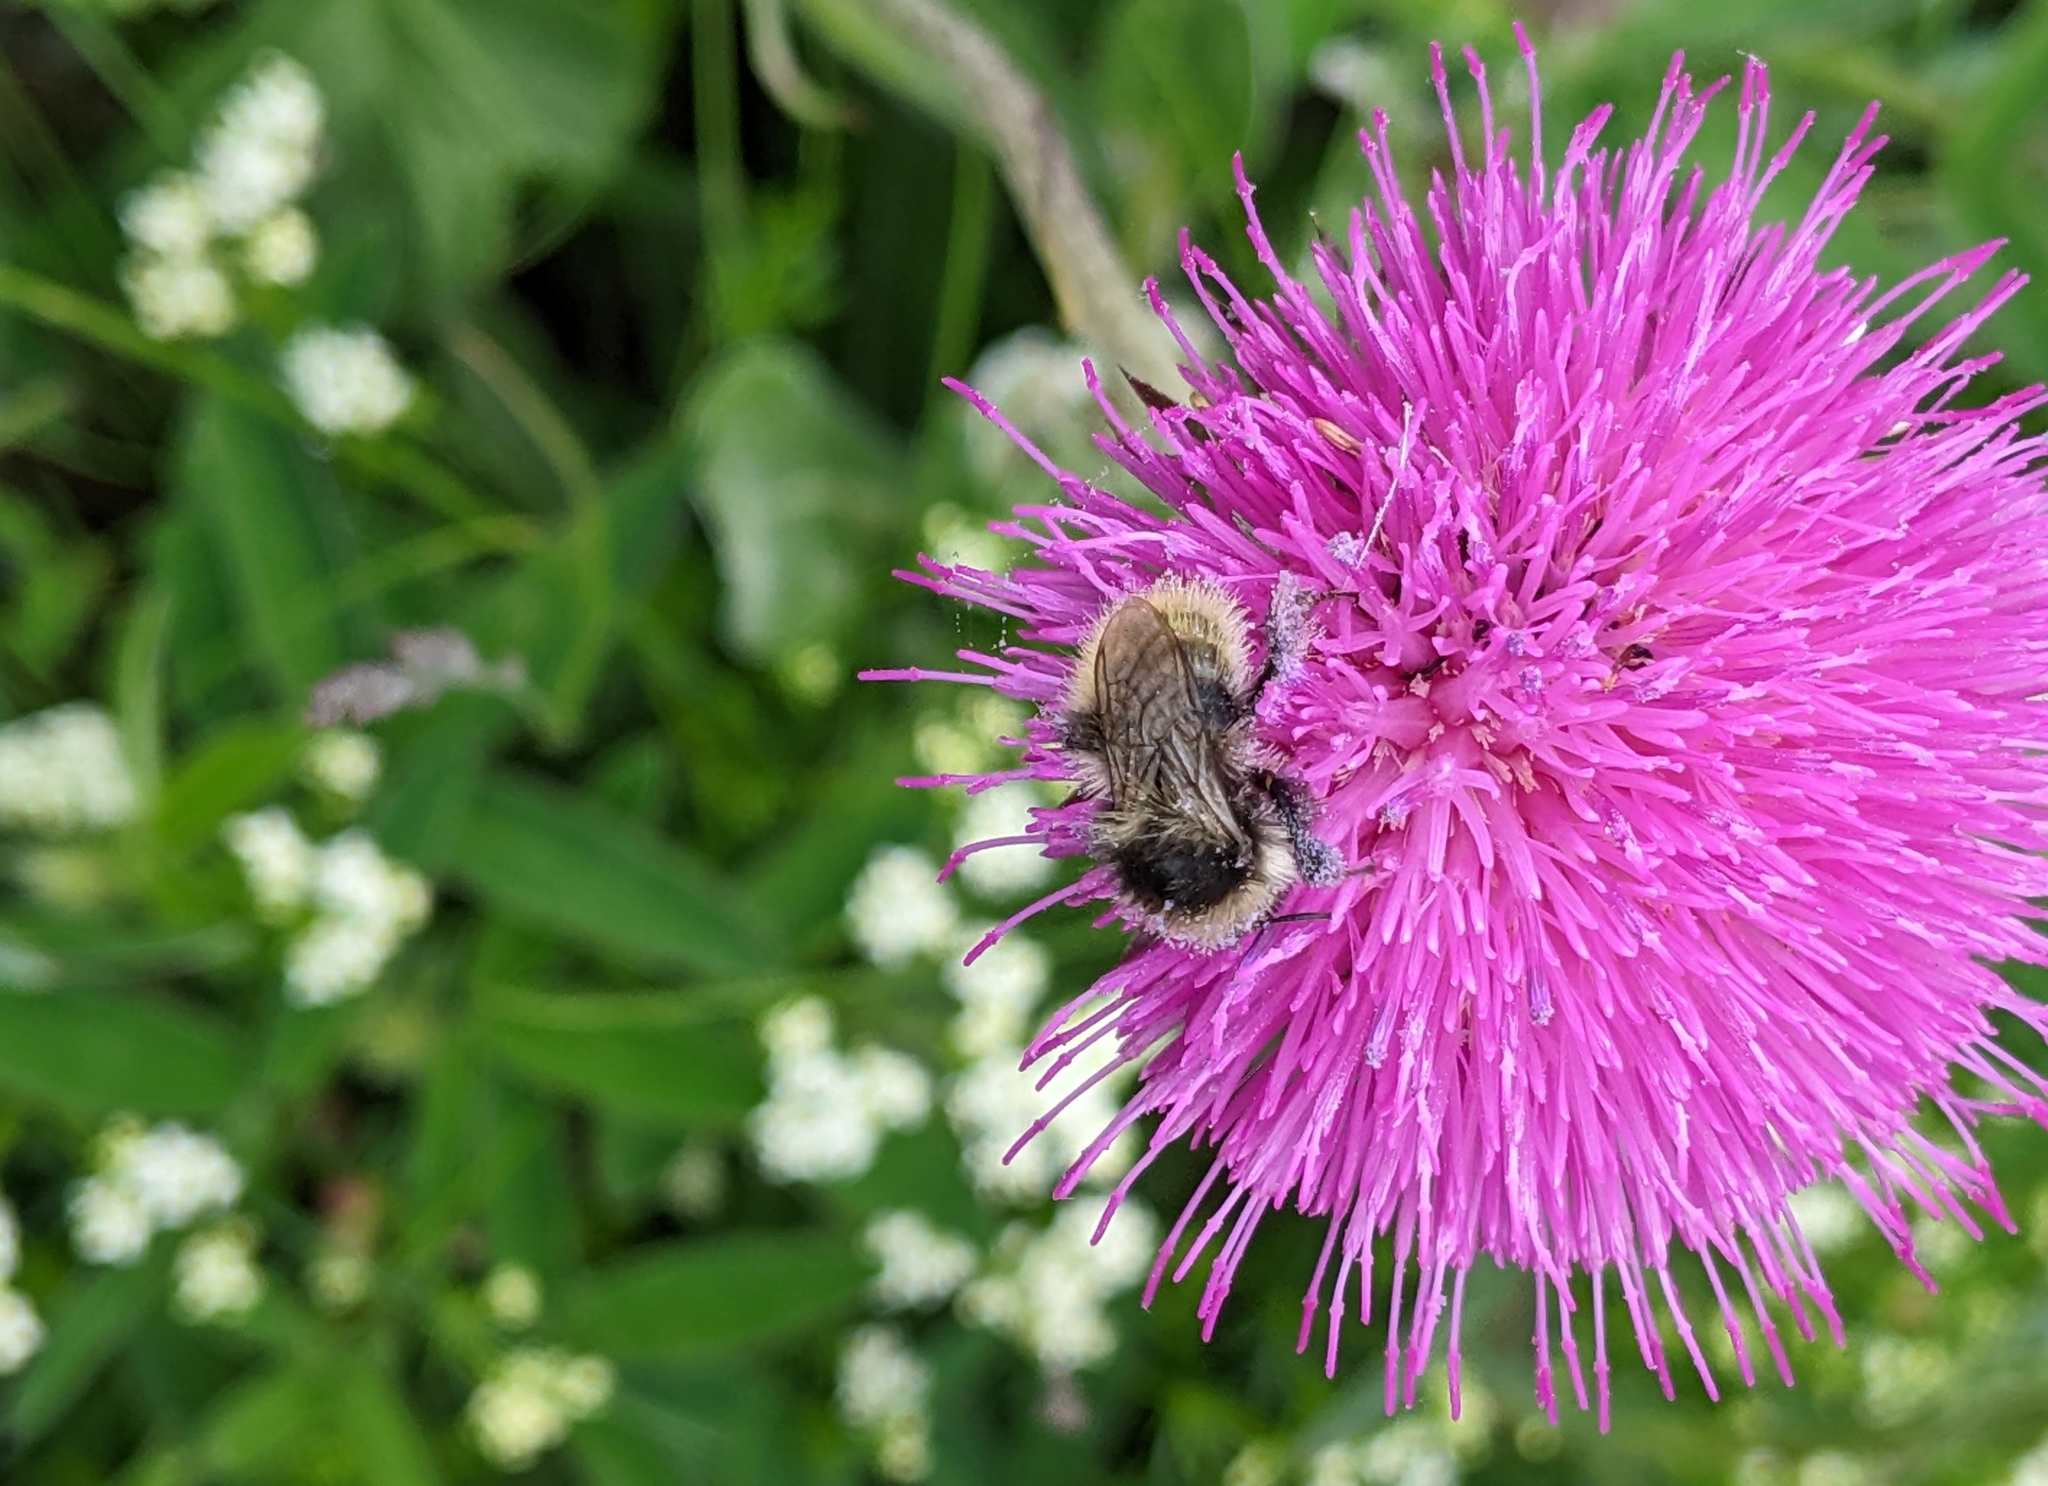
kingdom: Animalia
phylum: Arthropoda
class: Insecta
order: Hymenoptera
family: Apidae
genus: Bombus
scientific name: Bombus mucidus
